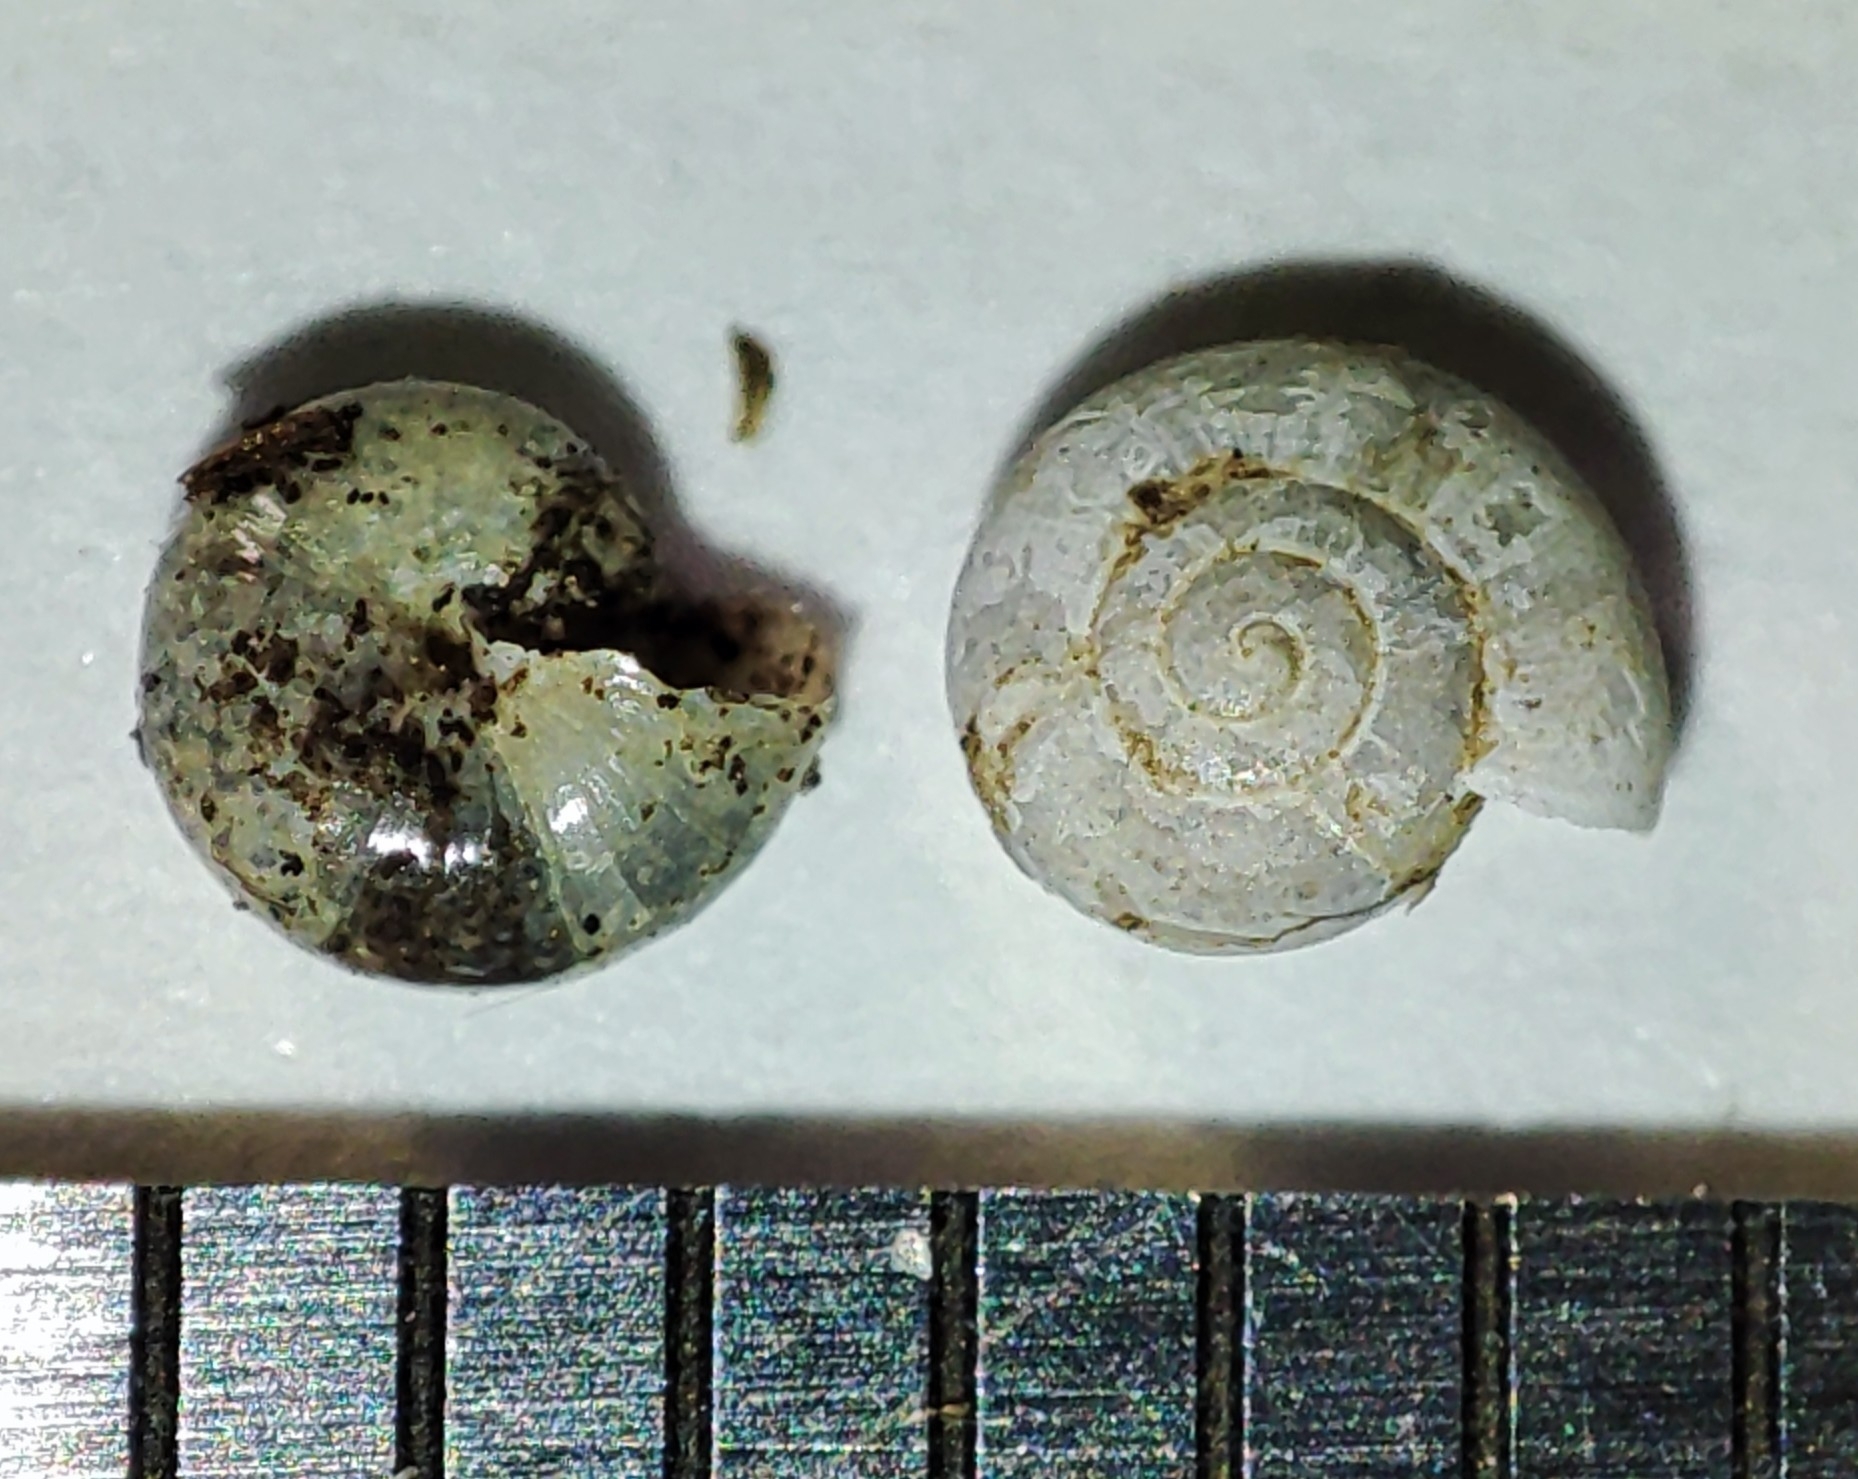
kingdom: Animalia
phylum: Mollusca
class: Gastropoda
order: Stylommatophora
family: Oxychilidae
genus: Mediterranea
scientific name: Mediterranea inopinata
